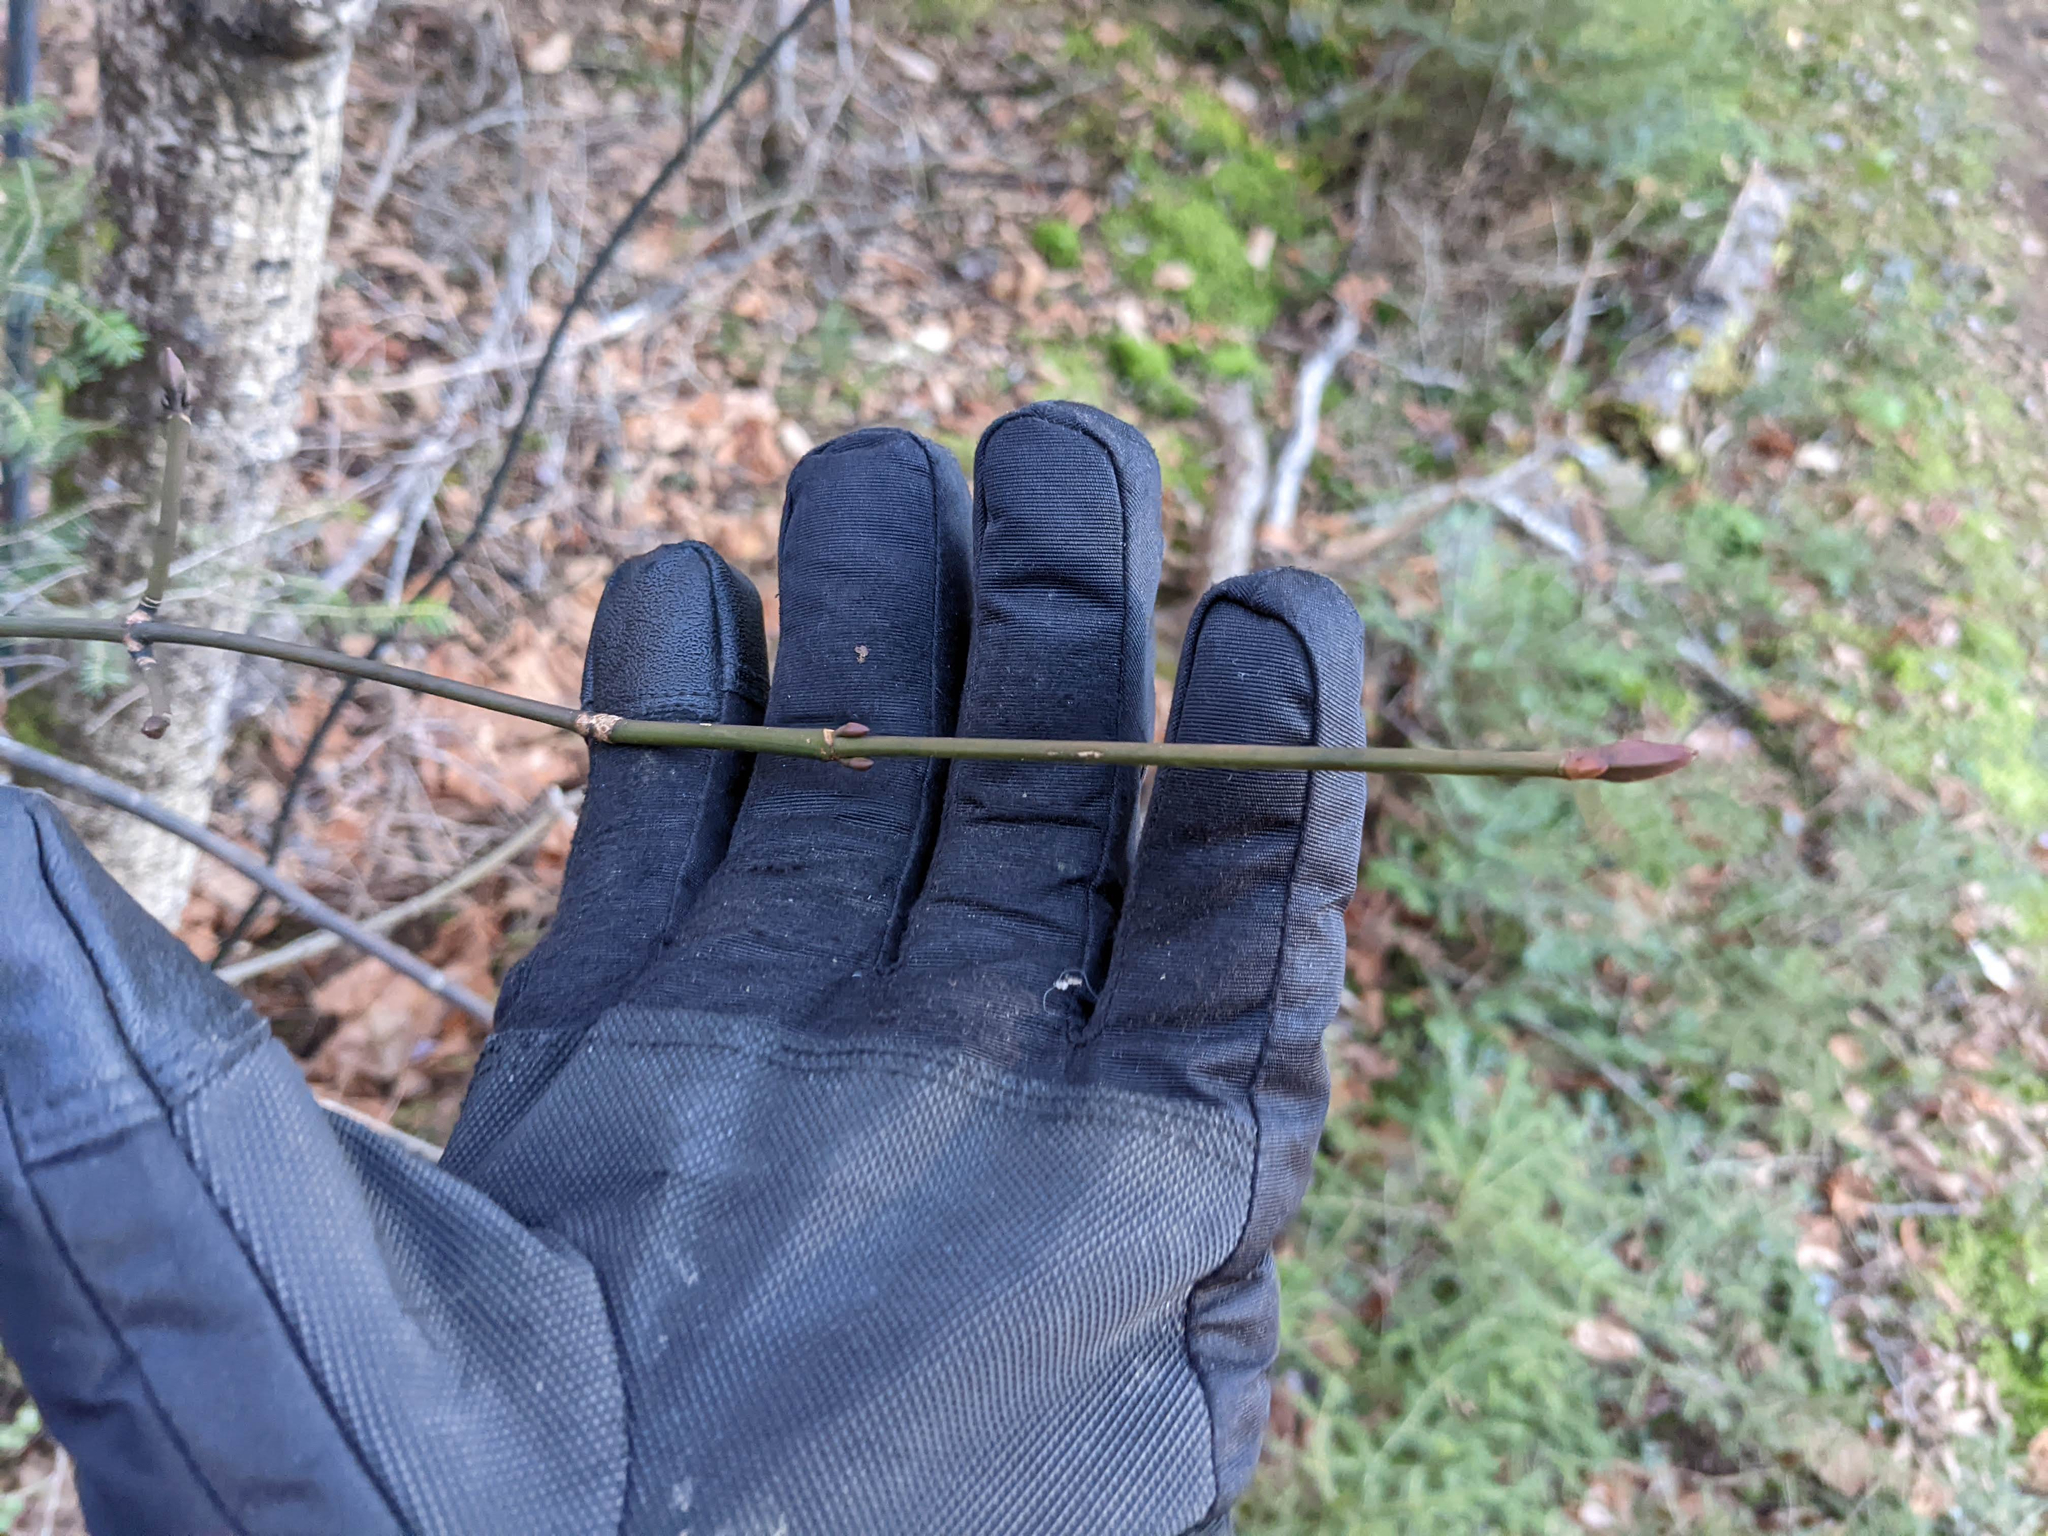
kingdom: Plantae
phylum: Tracheophyta
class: Magnoliopsida
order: Sapindales
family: Sapindaceae
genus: Acer
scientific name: Acer pensylvanicum
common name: Moosewood
